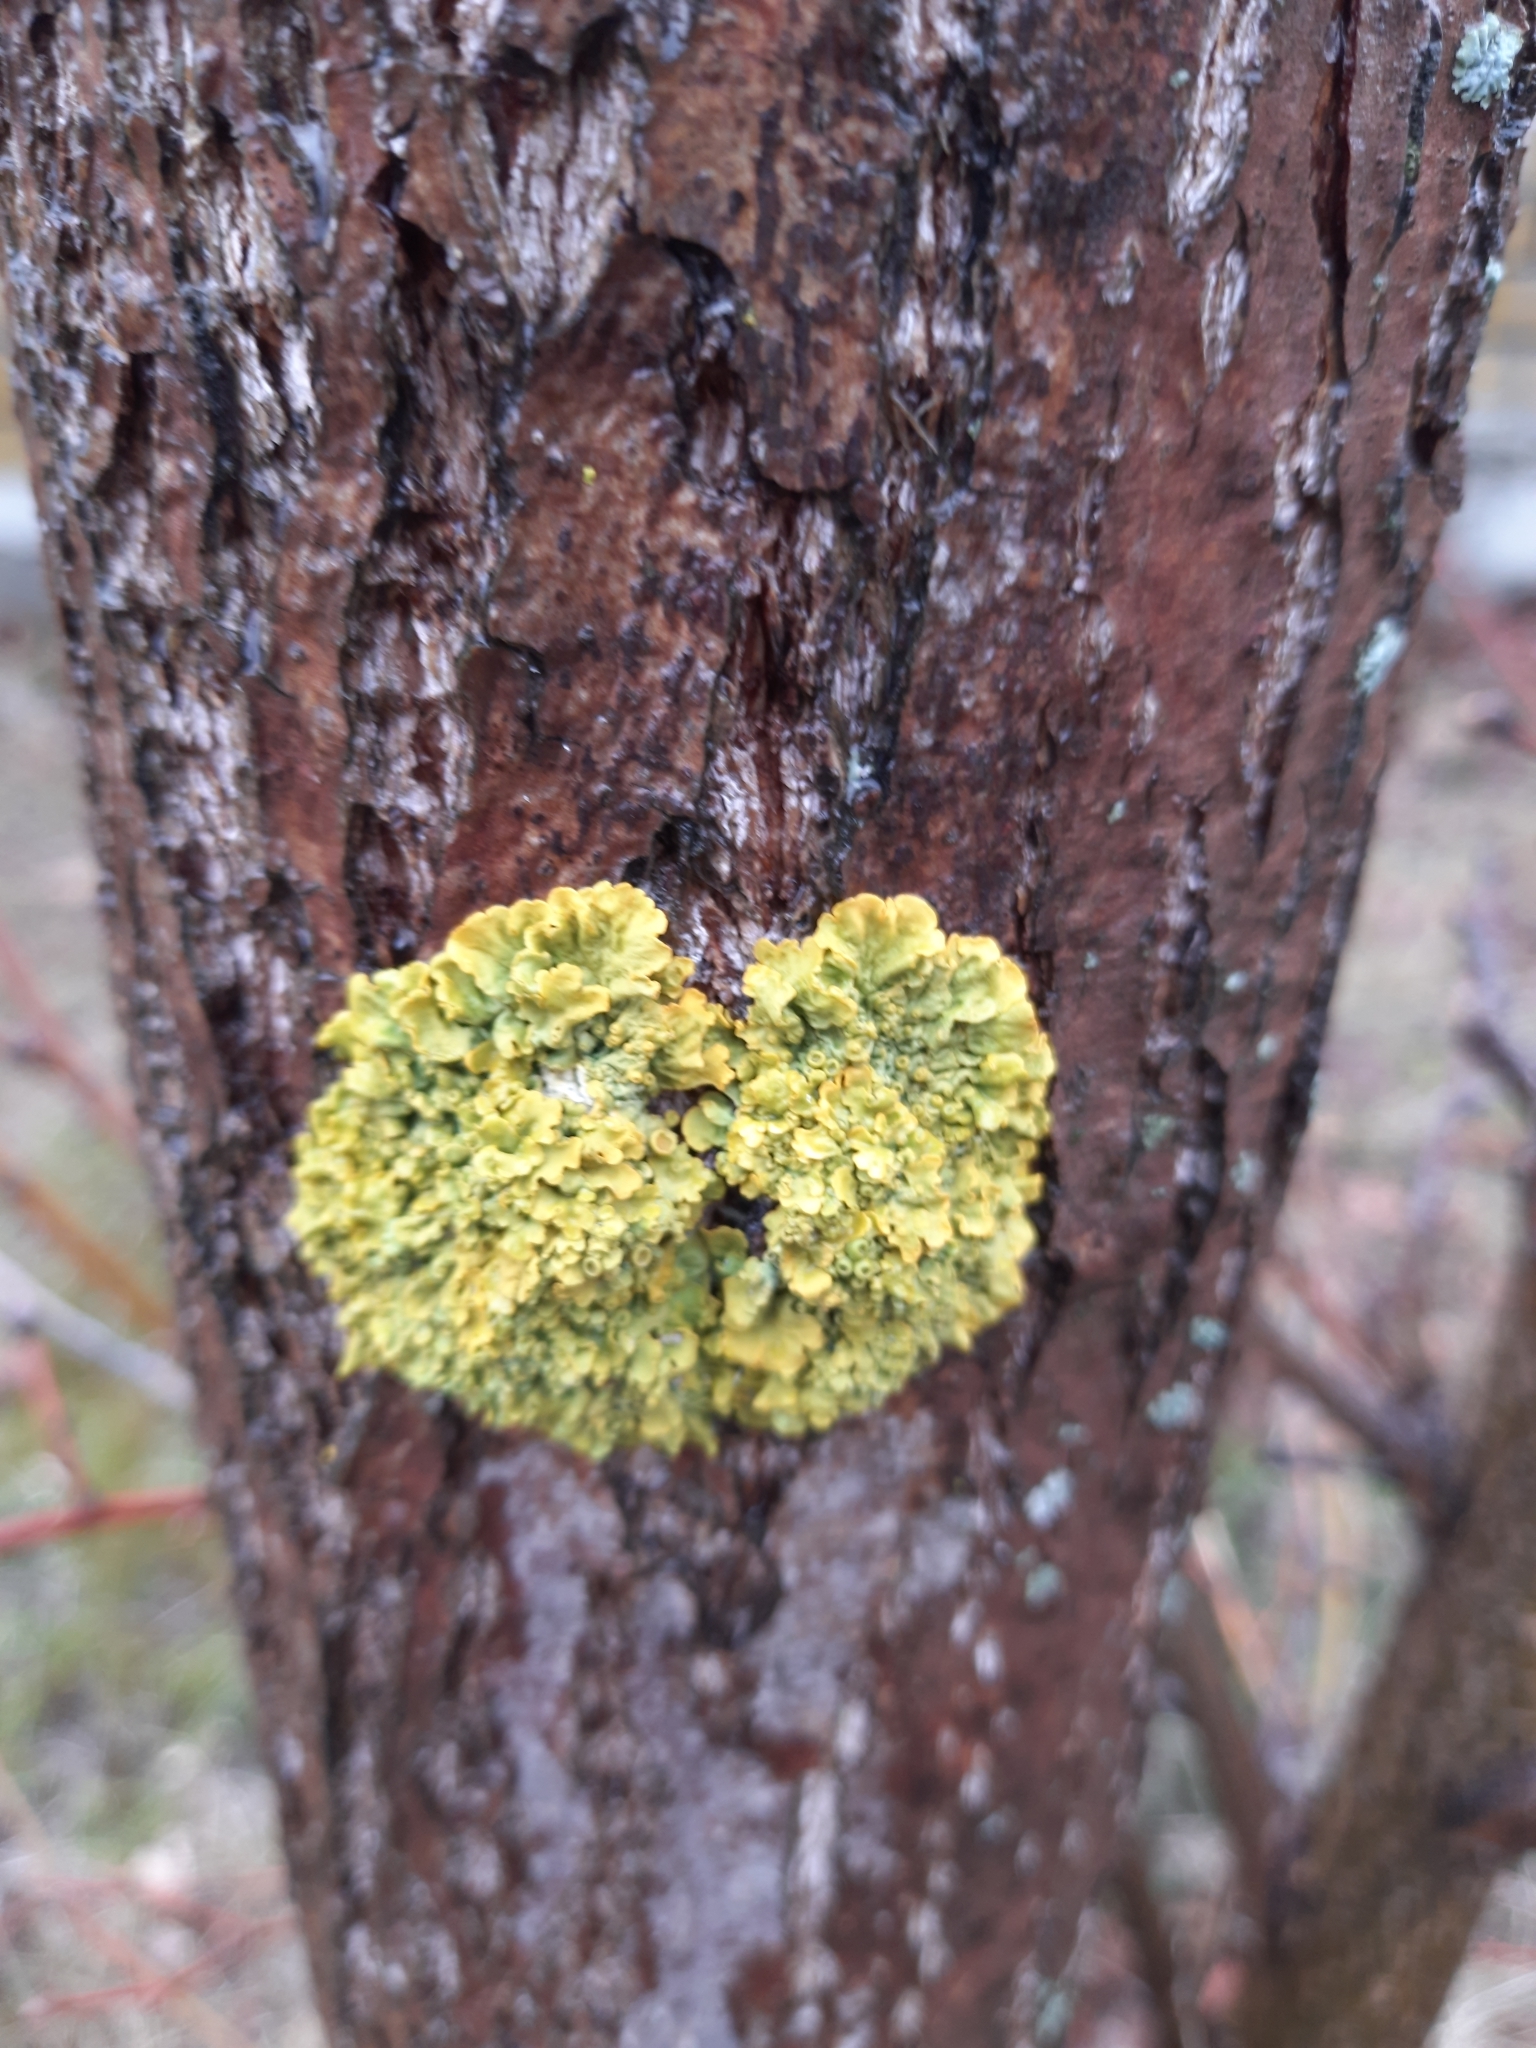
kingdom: Fungi
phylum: Ascomycota
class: Lecanoromycetes
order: Teloschistales
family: Teloschistaceae
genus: Xanthoria
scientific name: Xanthoria parietina
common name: Common orange lichen
